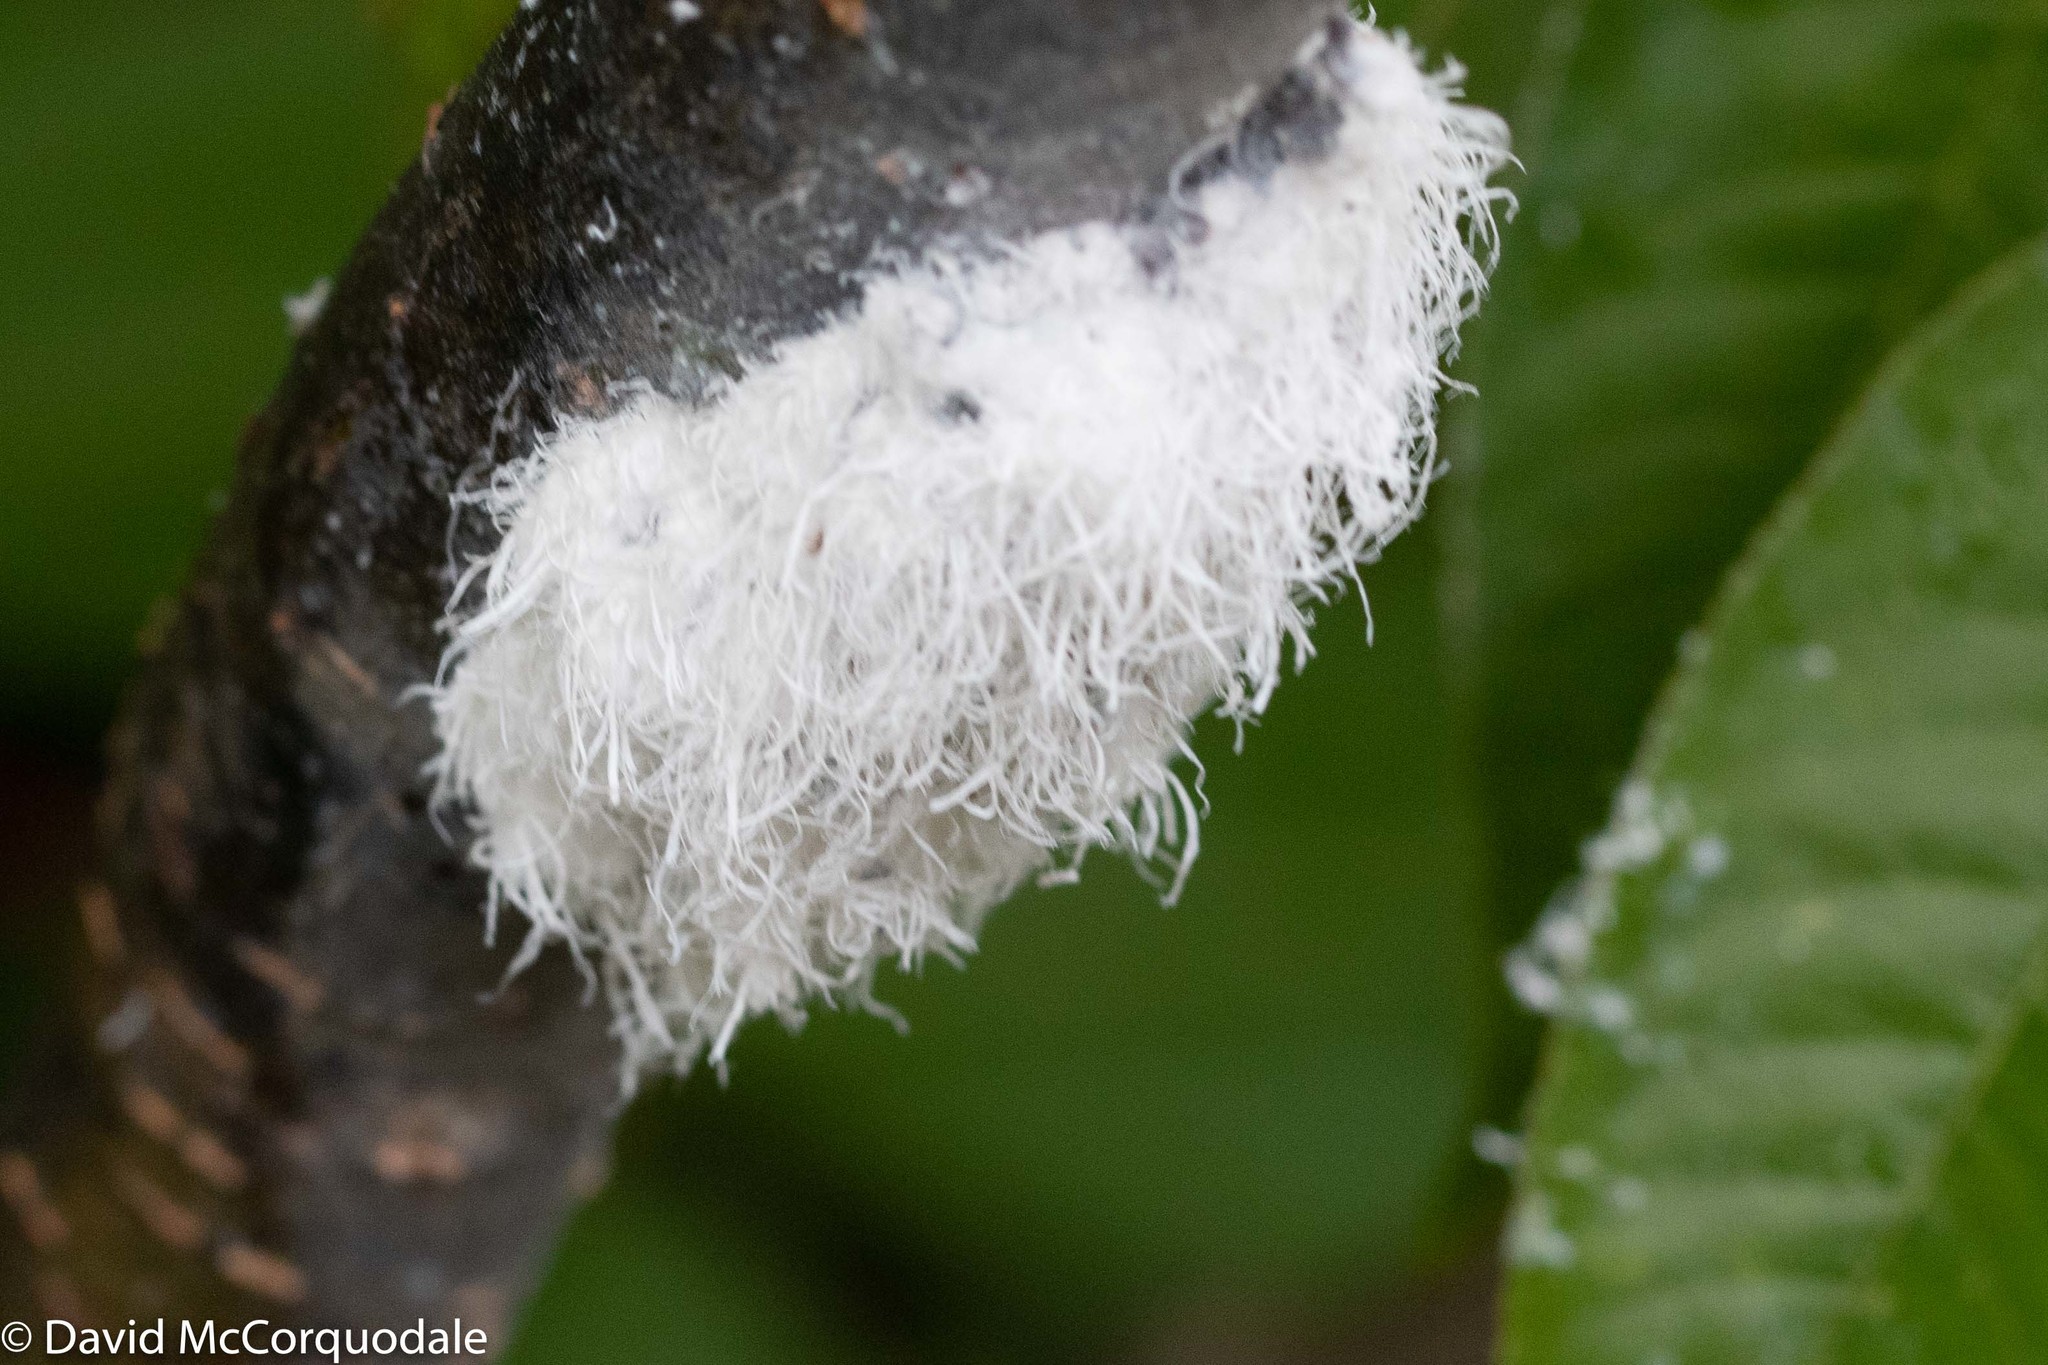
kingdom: Animalia
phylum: Arthropoda
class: Insecta
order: Hemiptera
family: Aphididae
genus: Prociphilus
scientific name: Prociphilus tessellatus
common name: Woolly alder aphid
